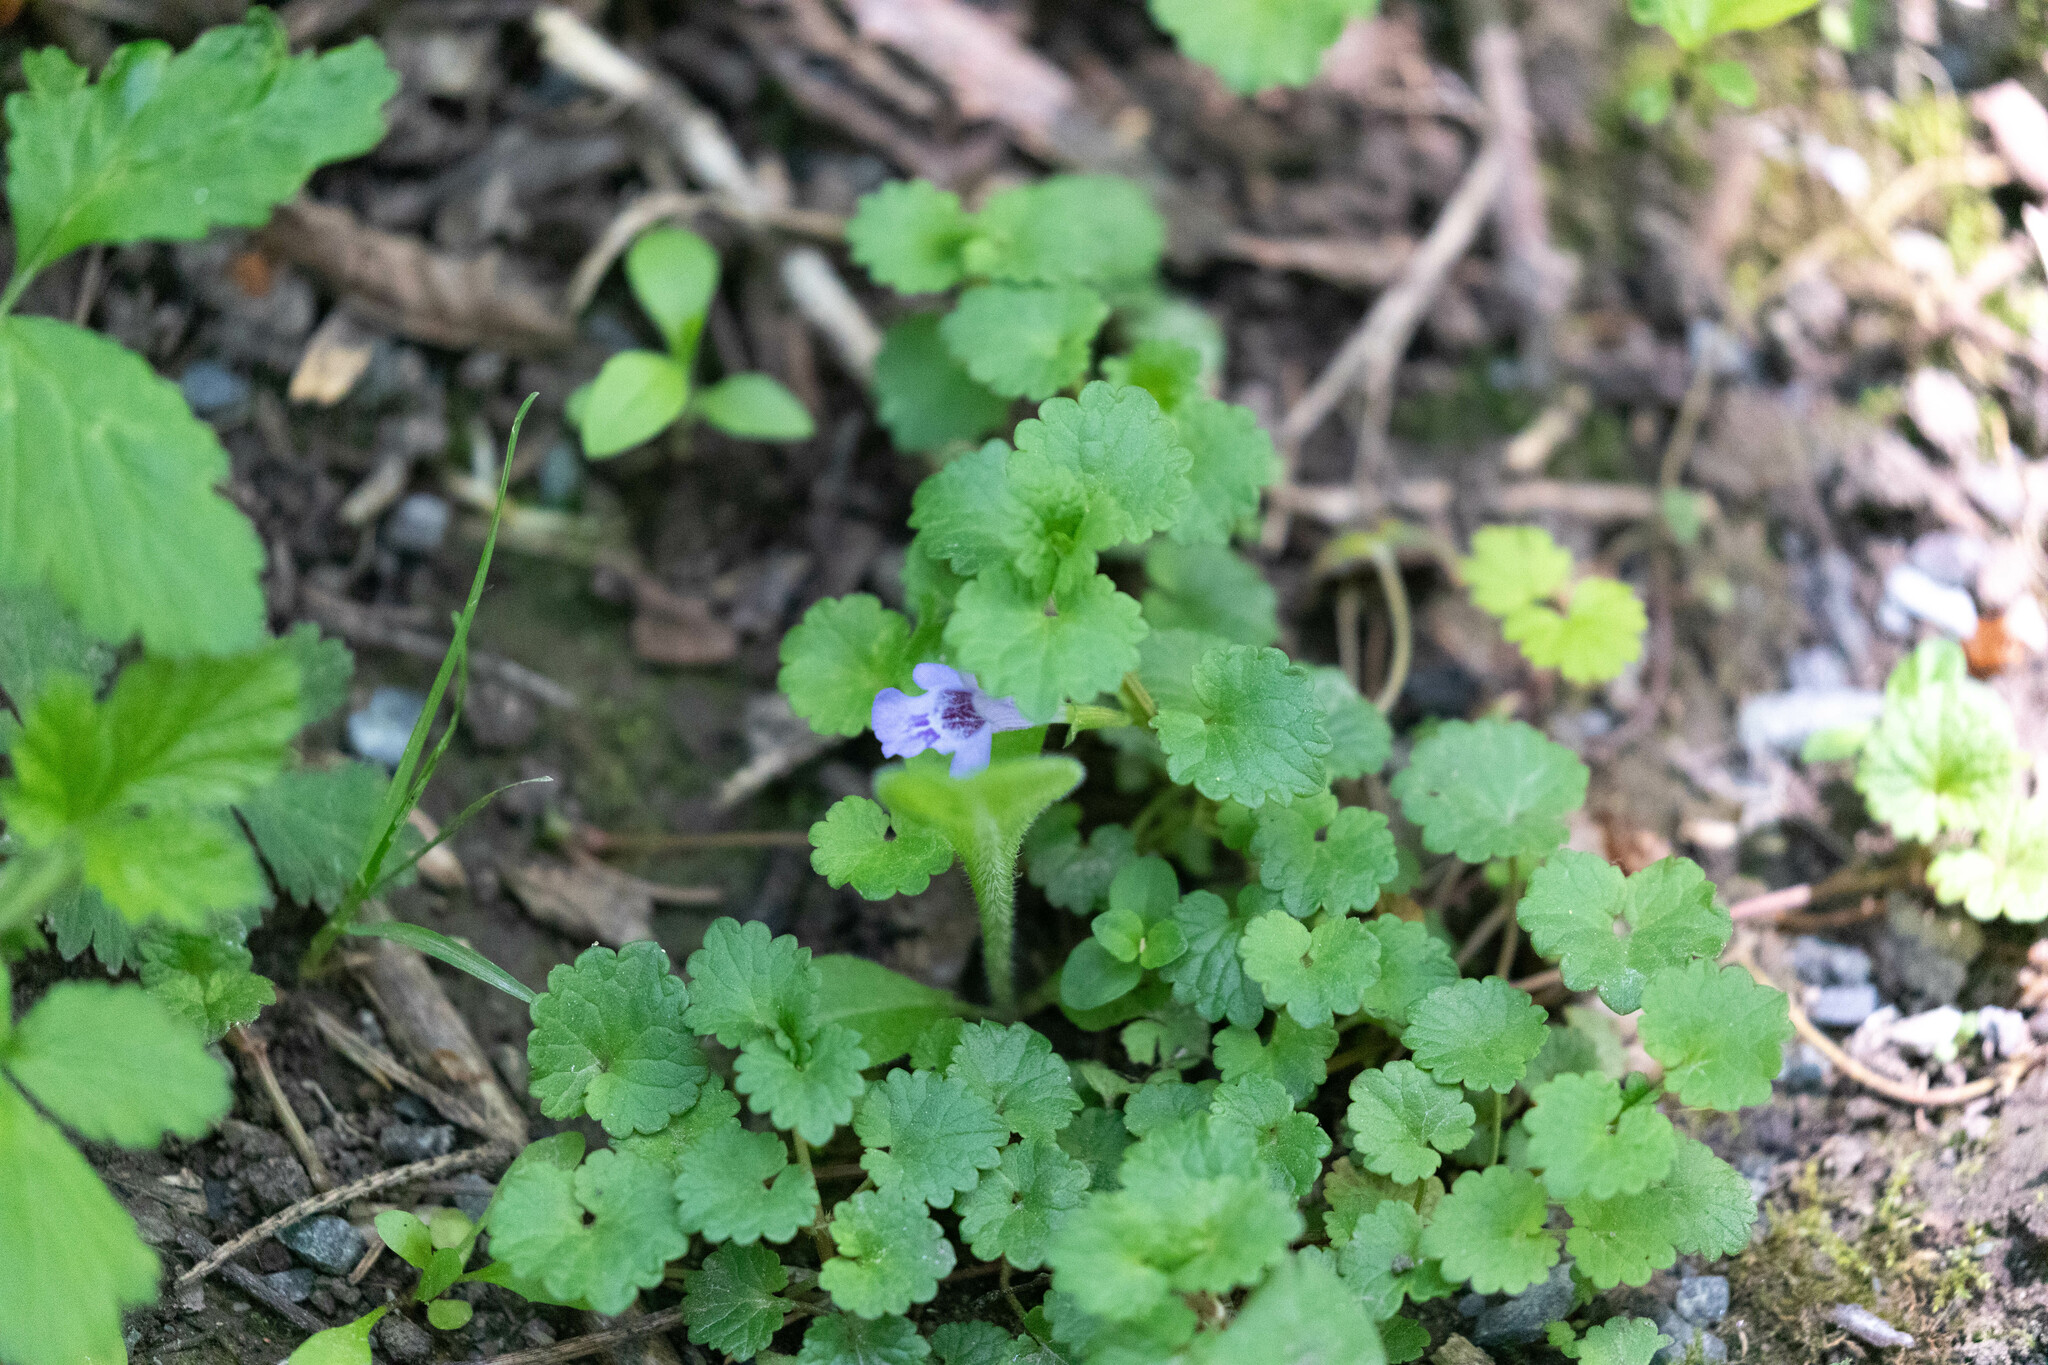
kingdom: Plantae
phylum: Tracheophyta
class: Magnoliopsida
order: Lamiales
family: Lamiaceae
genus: Glechoma
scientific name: Glechoma hederacea
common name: Ground ivy
